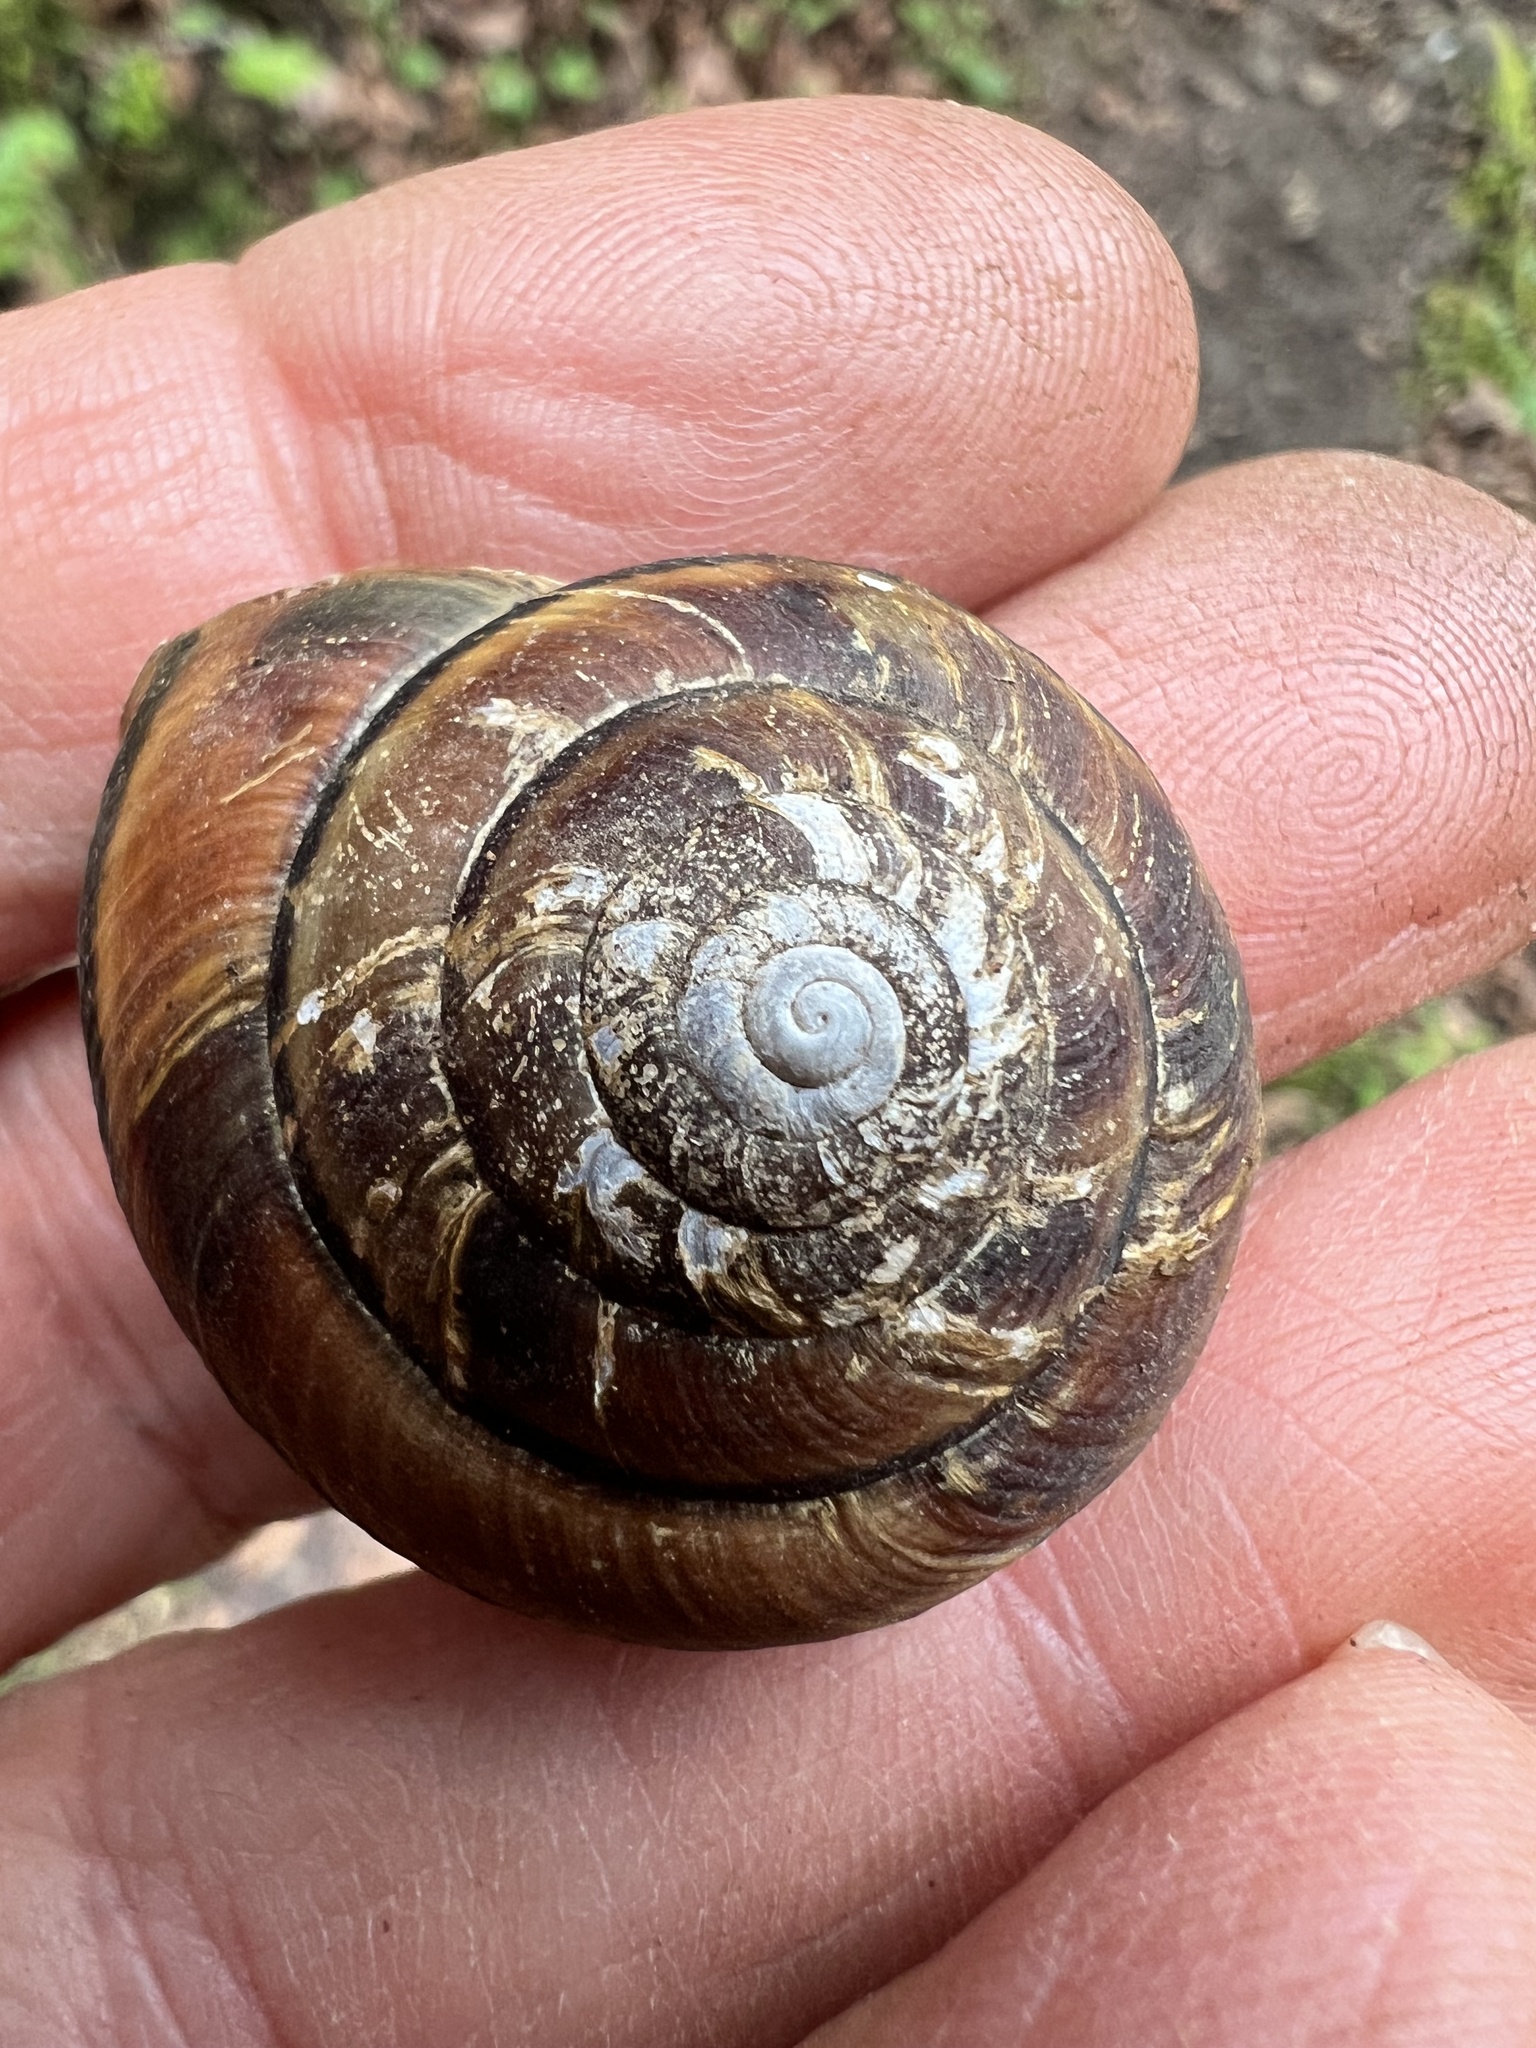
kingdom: Animalia
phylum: Mollusca
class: Gastropoda
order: Stylommatophora
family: Xanthonychidae
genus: Monadenia
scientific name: Monadenia fidelis
